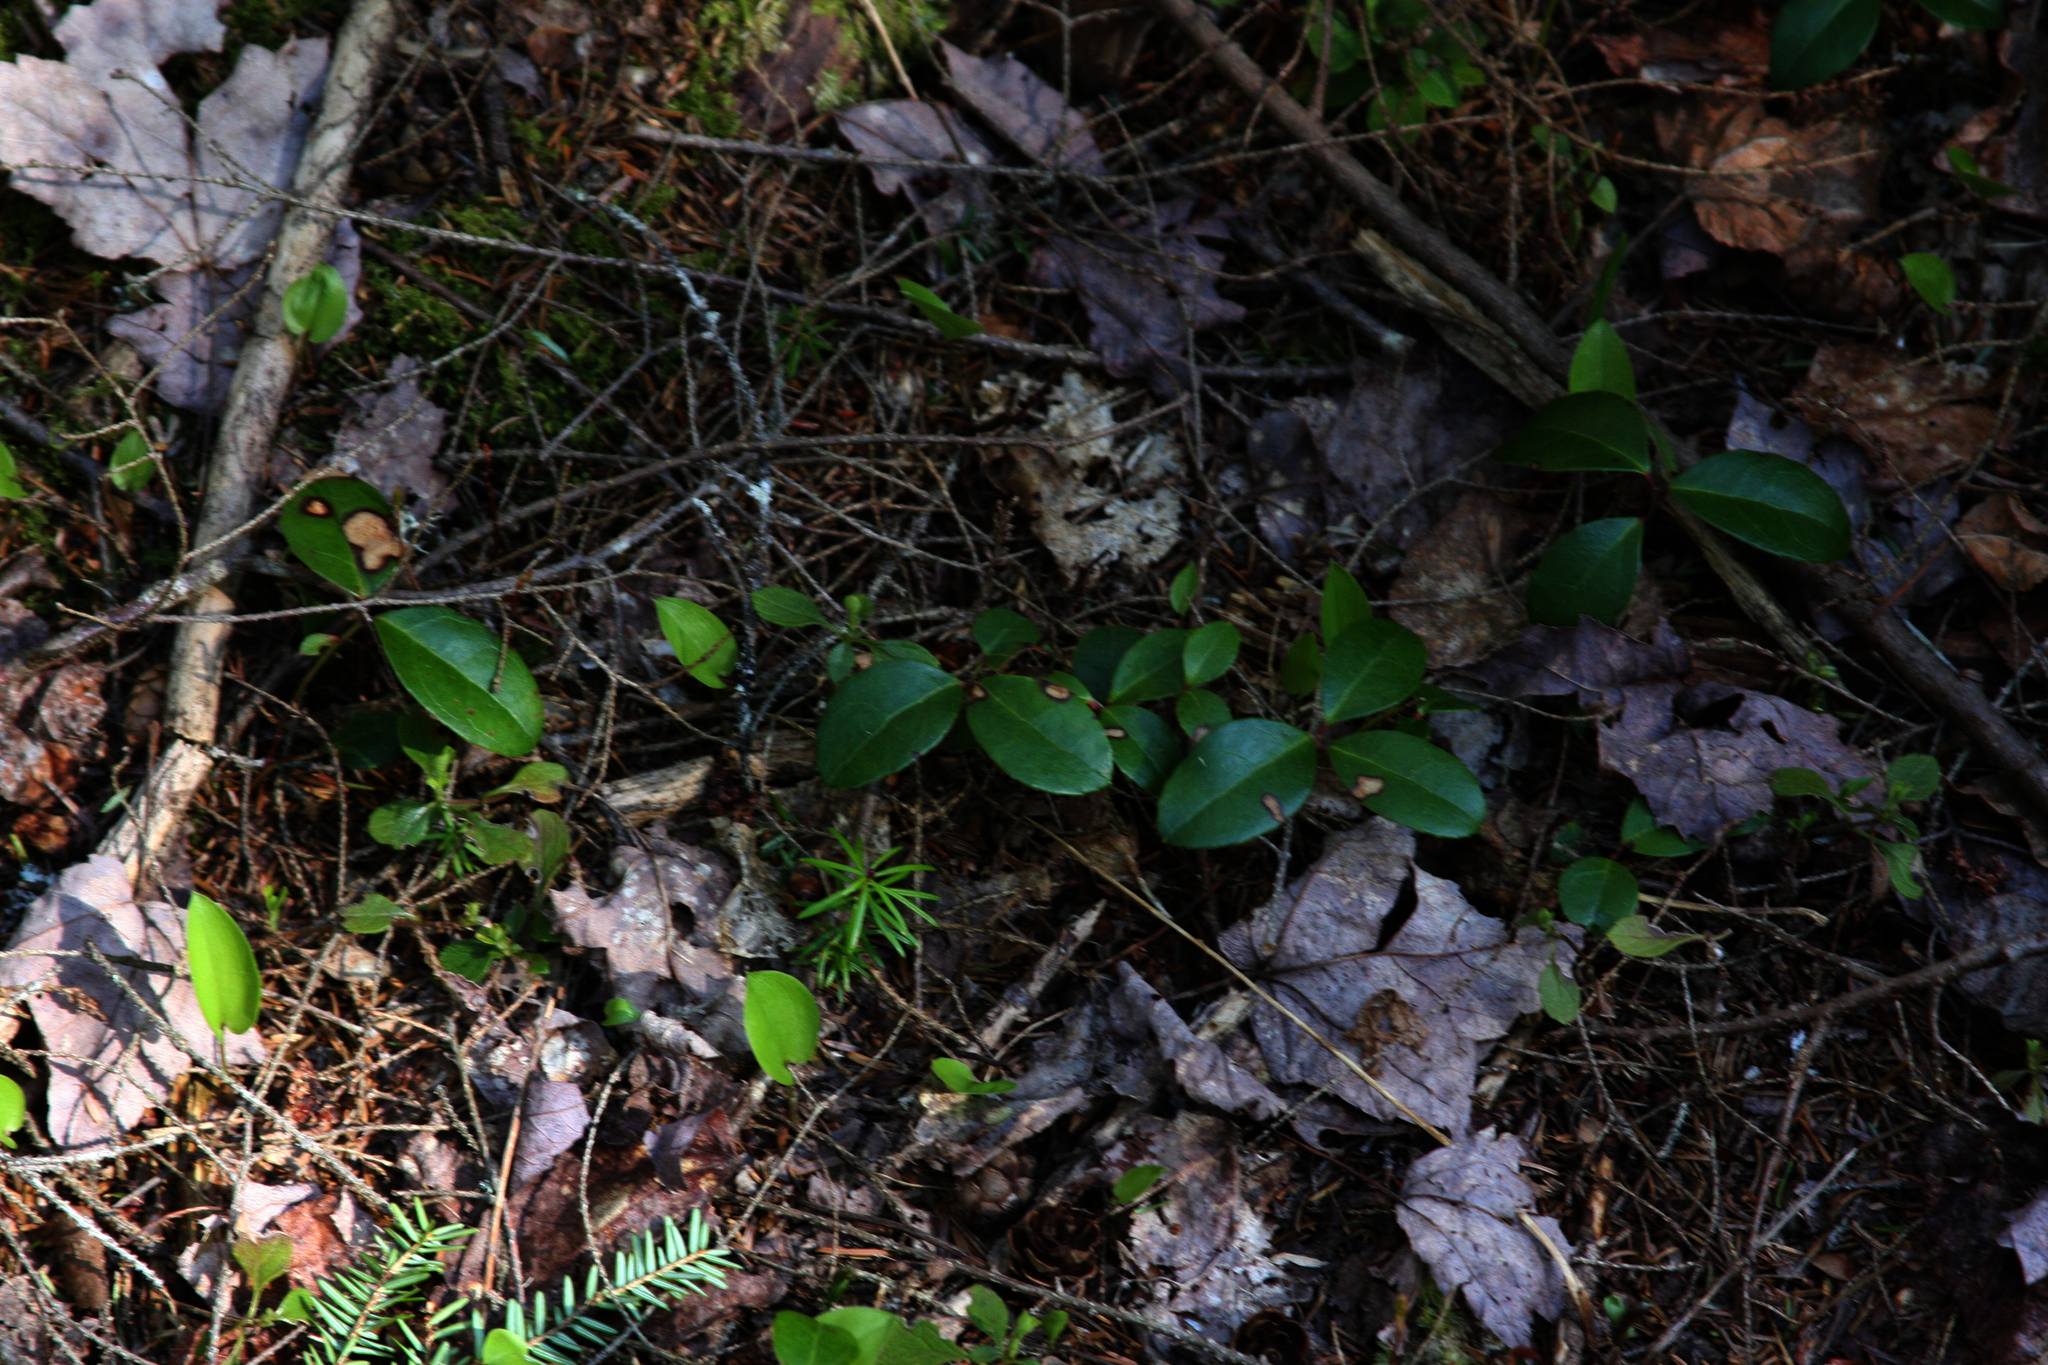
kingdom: Plantae
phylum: Tracheophyta
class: Magnoliopsida
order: Ericales
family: Ericaceae
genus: Gaultheria
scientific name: Gaultheria procumbens
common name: Checkerberry
